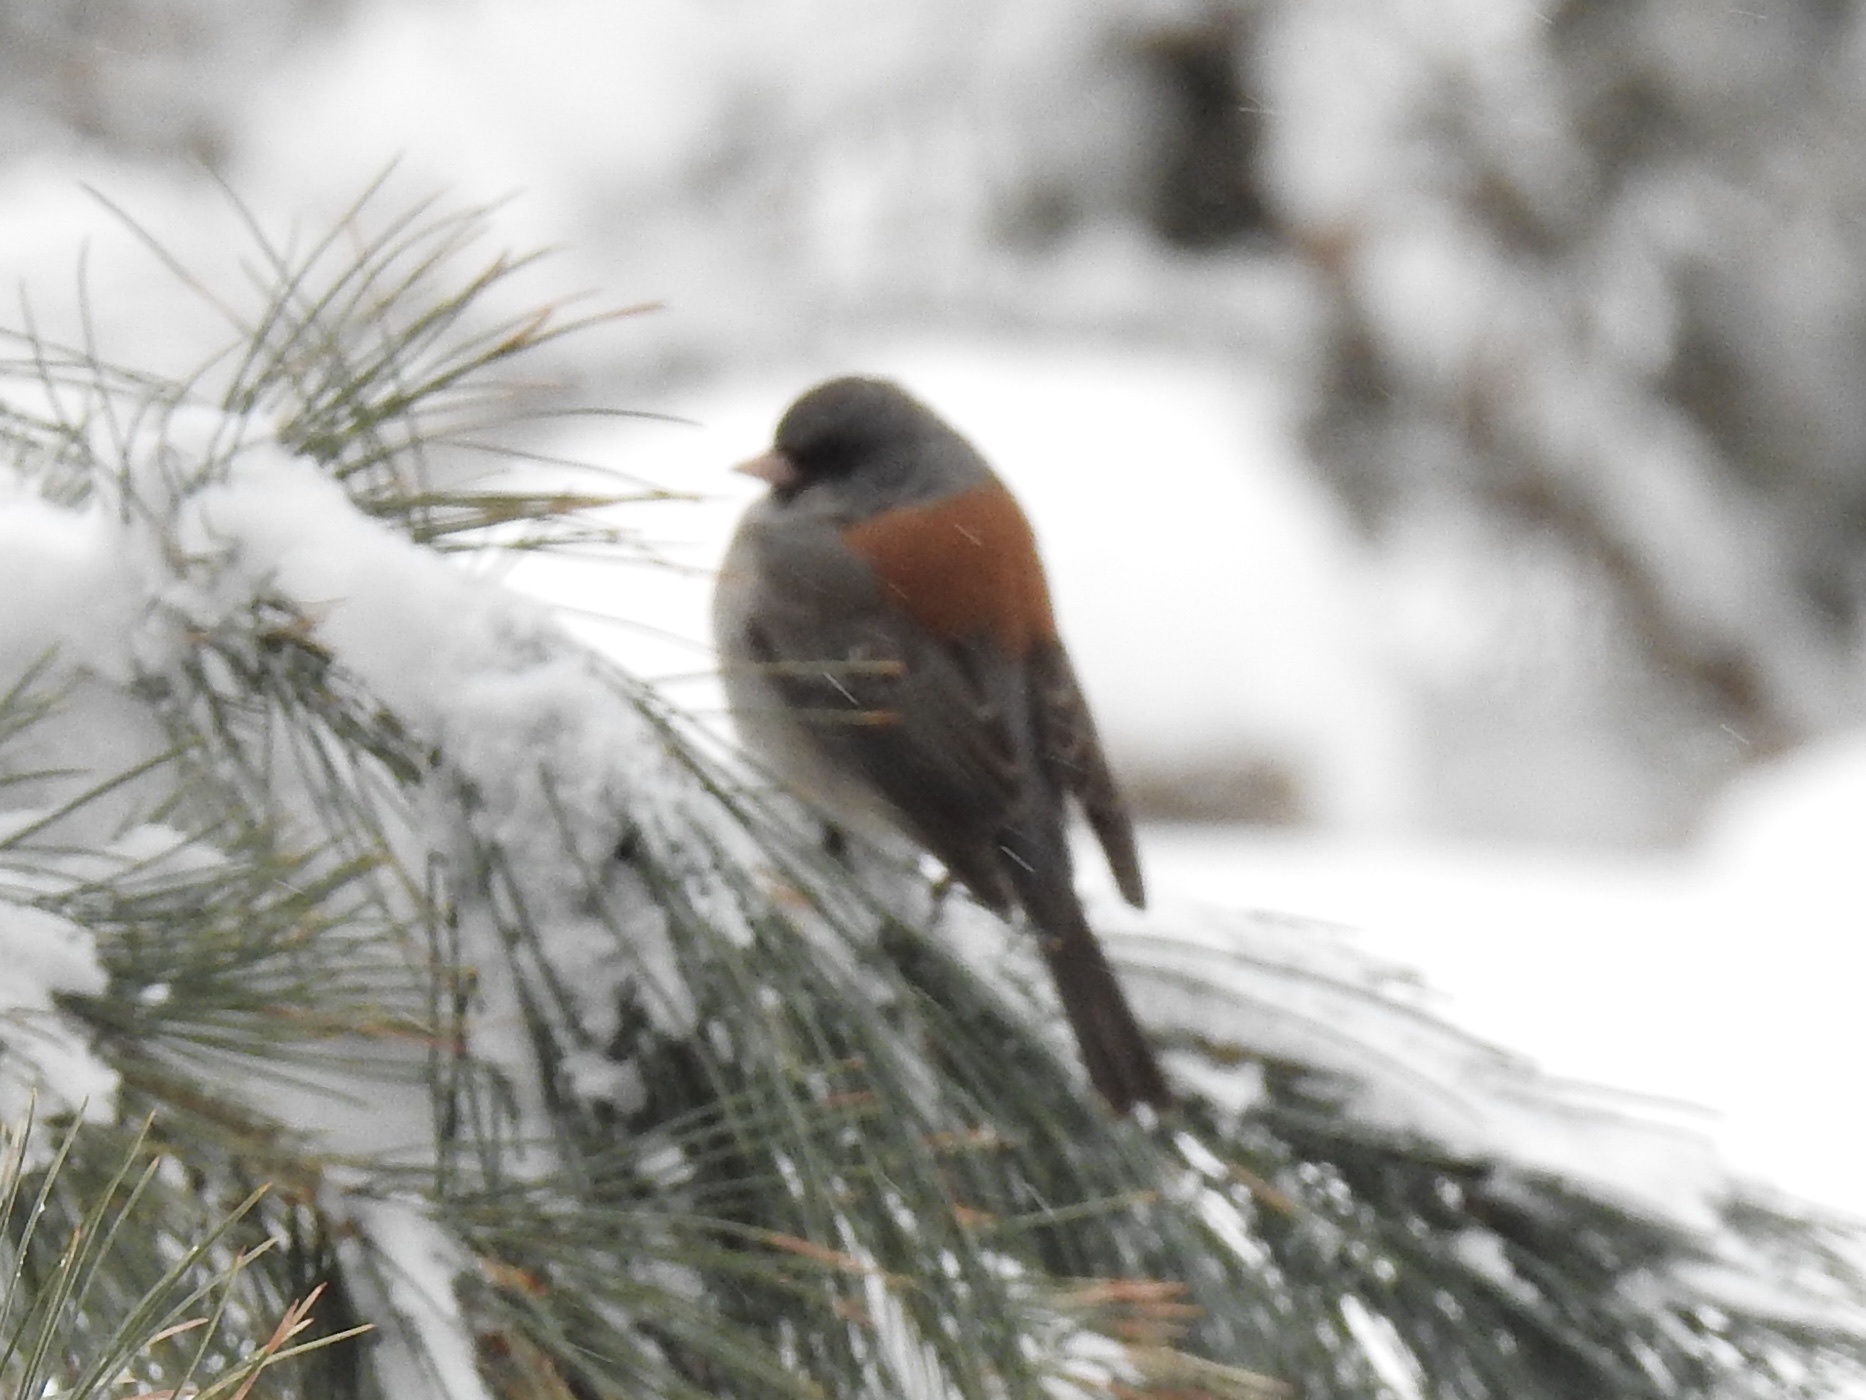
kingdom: Animalia
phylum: Chordata
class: Aves
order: Passeriformes
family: Passerellidae
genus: Junco
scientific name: Junco hyemalis
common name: Dark-eyed junco
